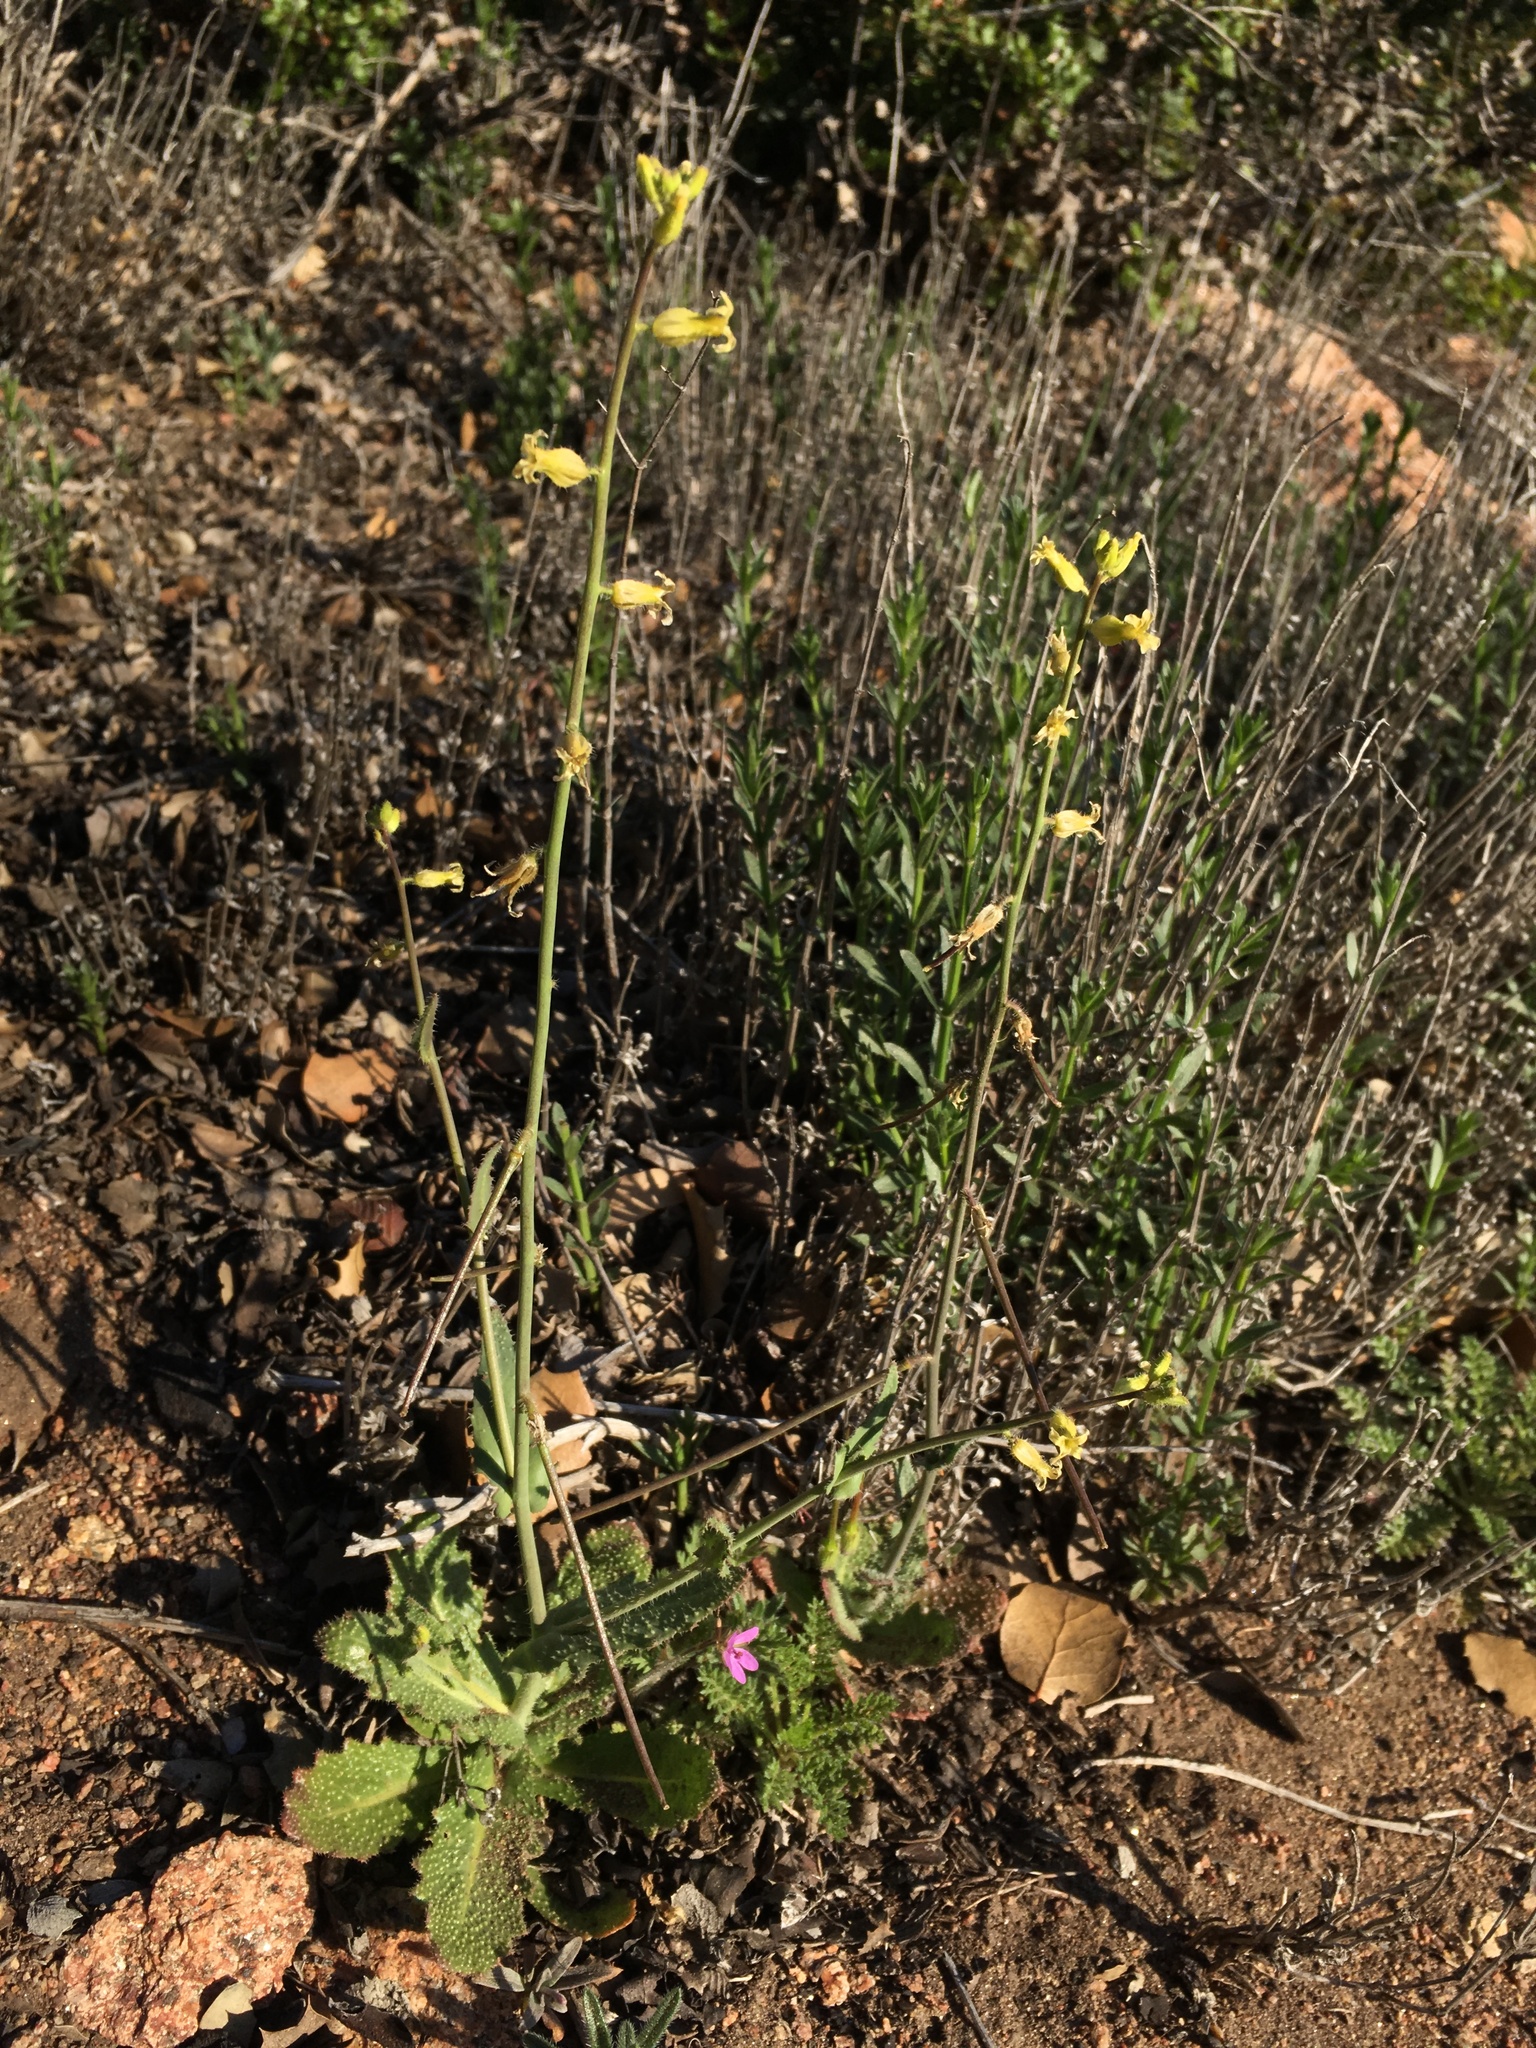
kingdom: Plantae
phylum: Tracheophyta
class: Magnoliopsida
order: Brassicales
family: Brassicaceae
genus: Streptanthus
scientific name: Streptanthus simulans
